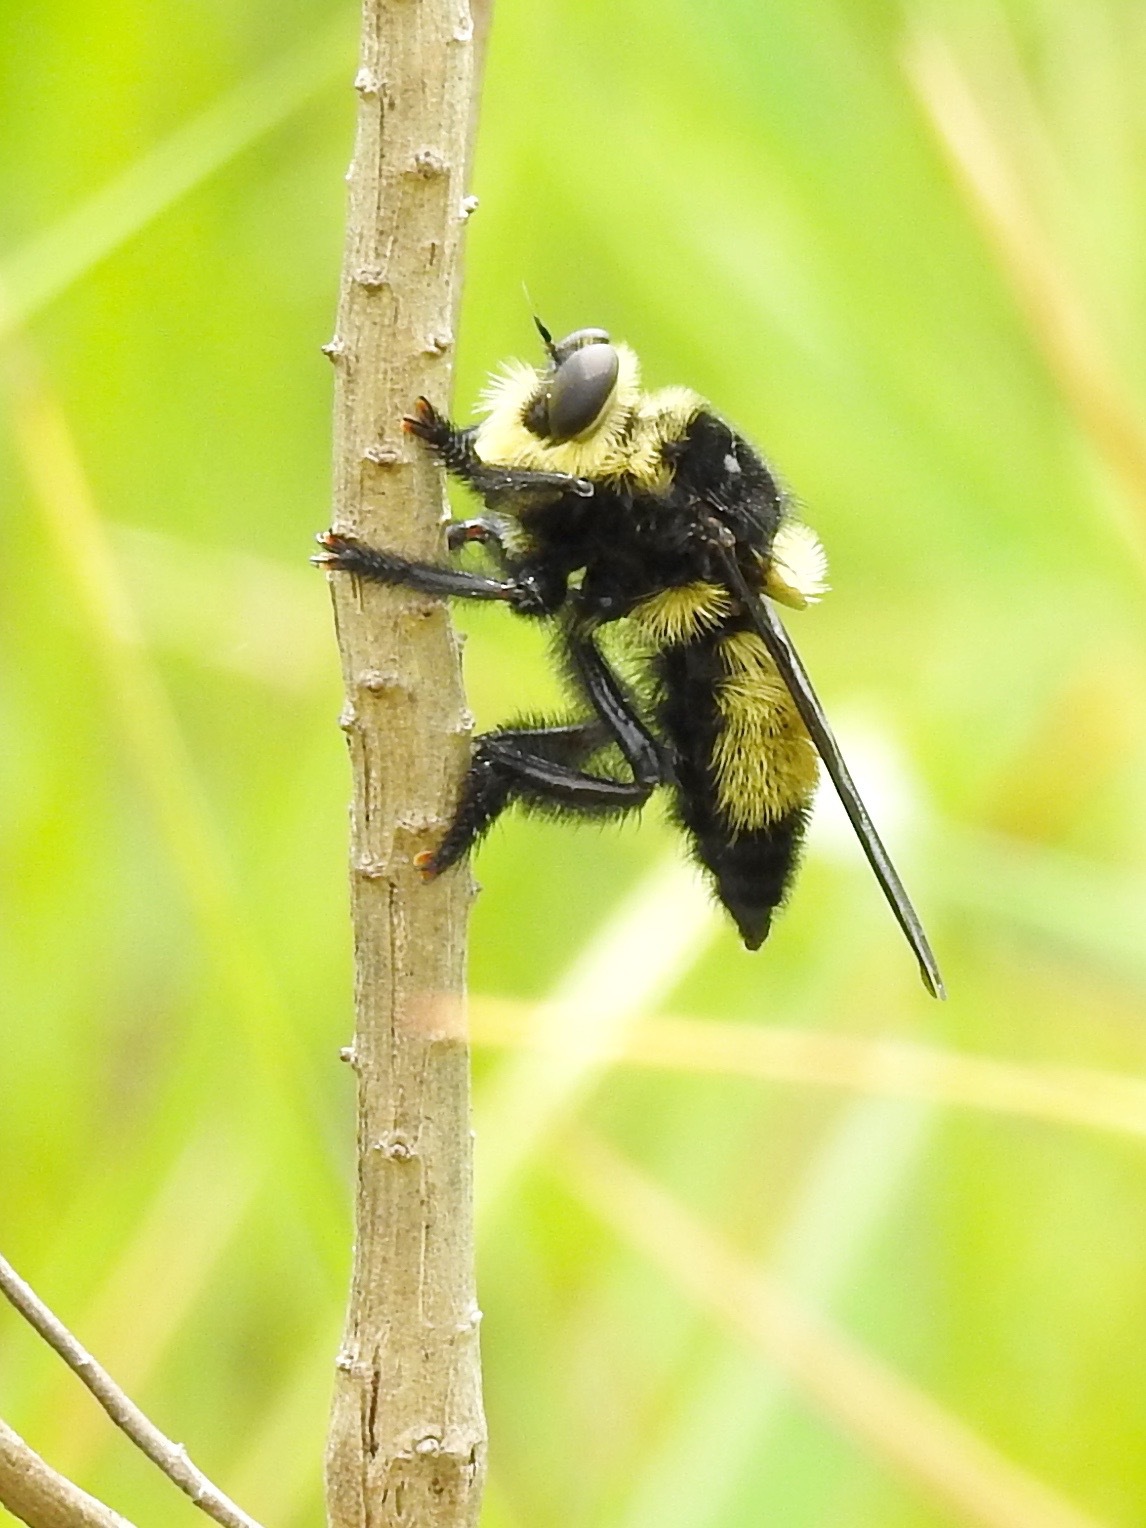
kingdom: Animalia
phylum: Arthropoda
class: Insecta
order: Diptera
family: Asilidae
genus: Mallophora
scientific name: Mallophora orcina
